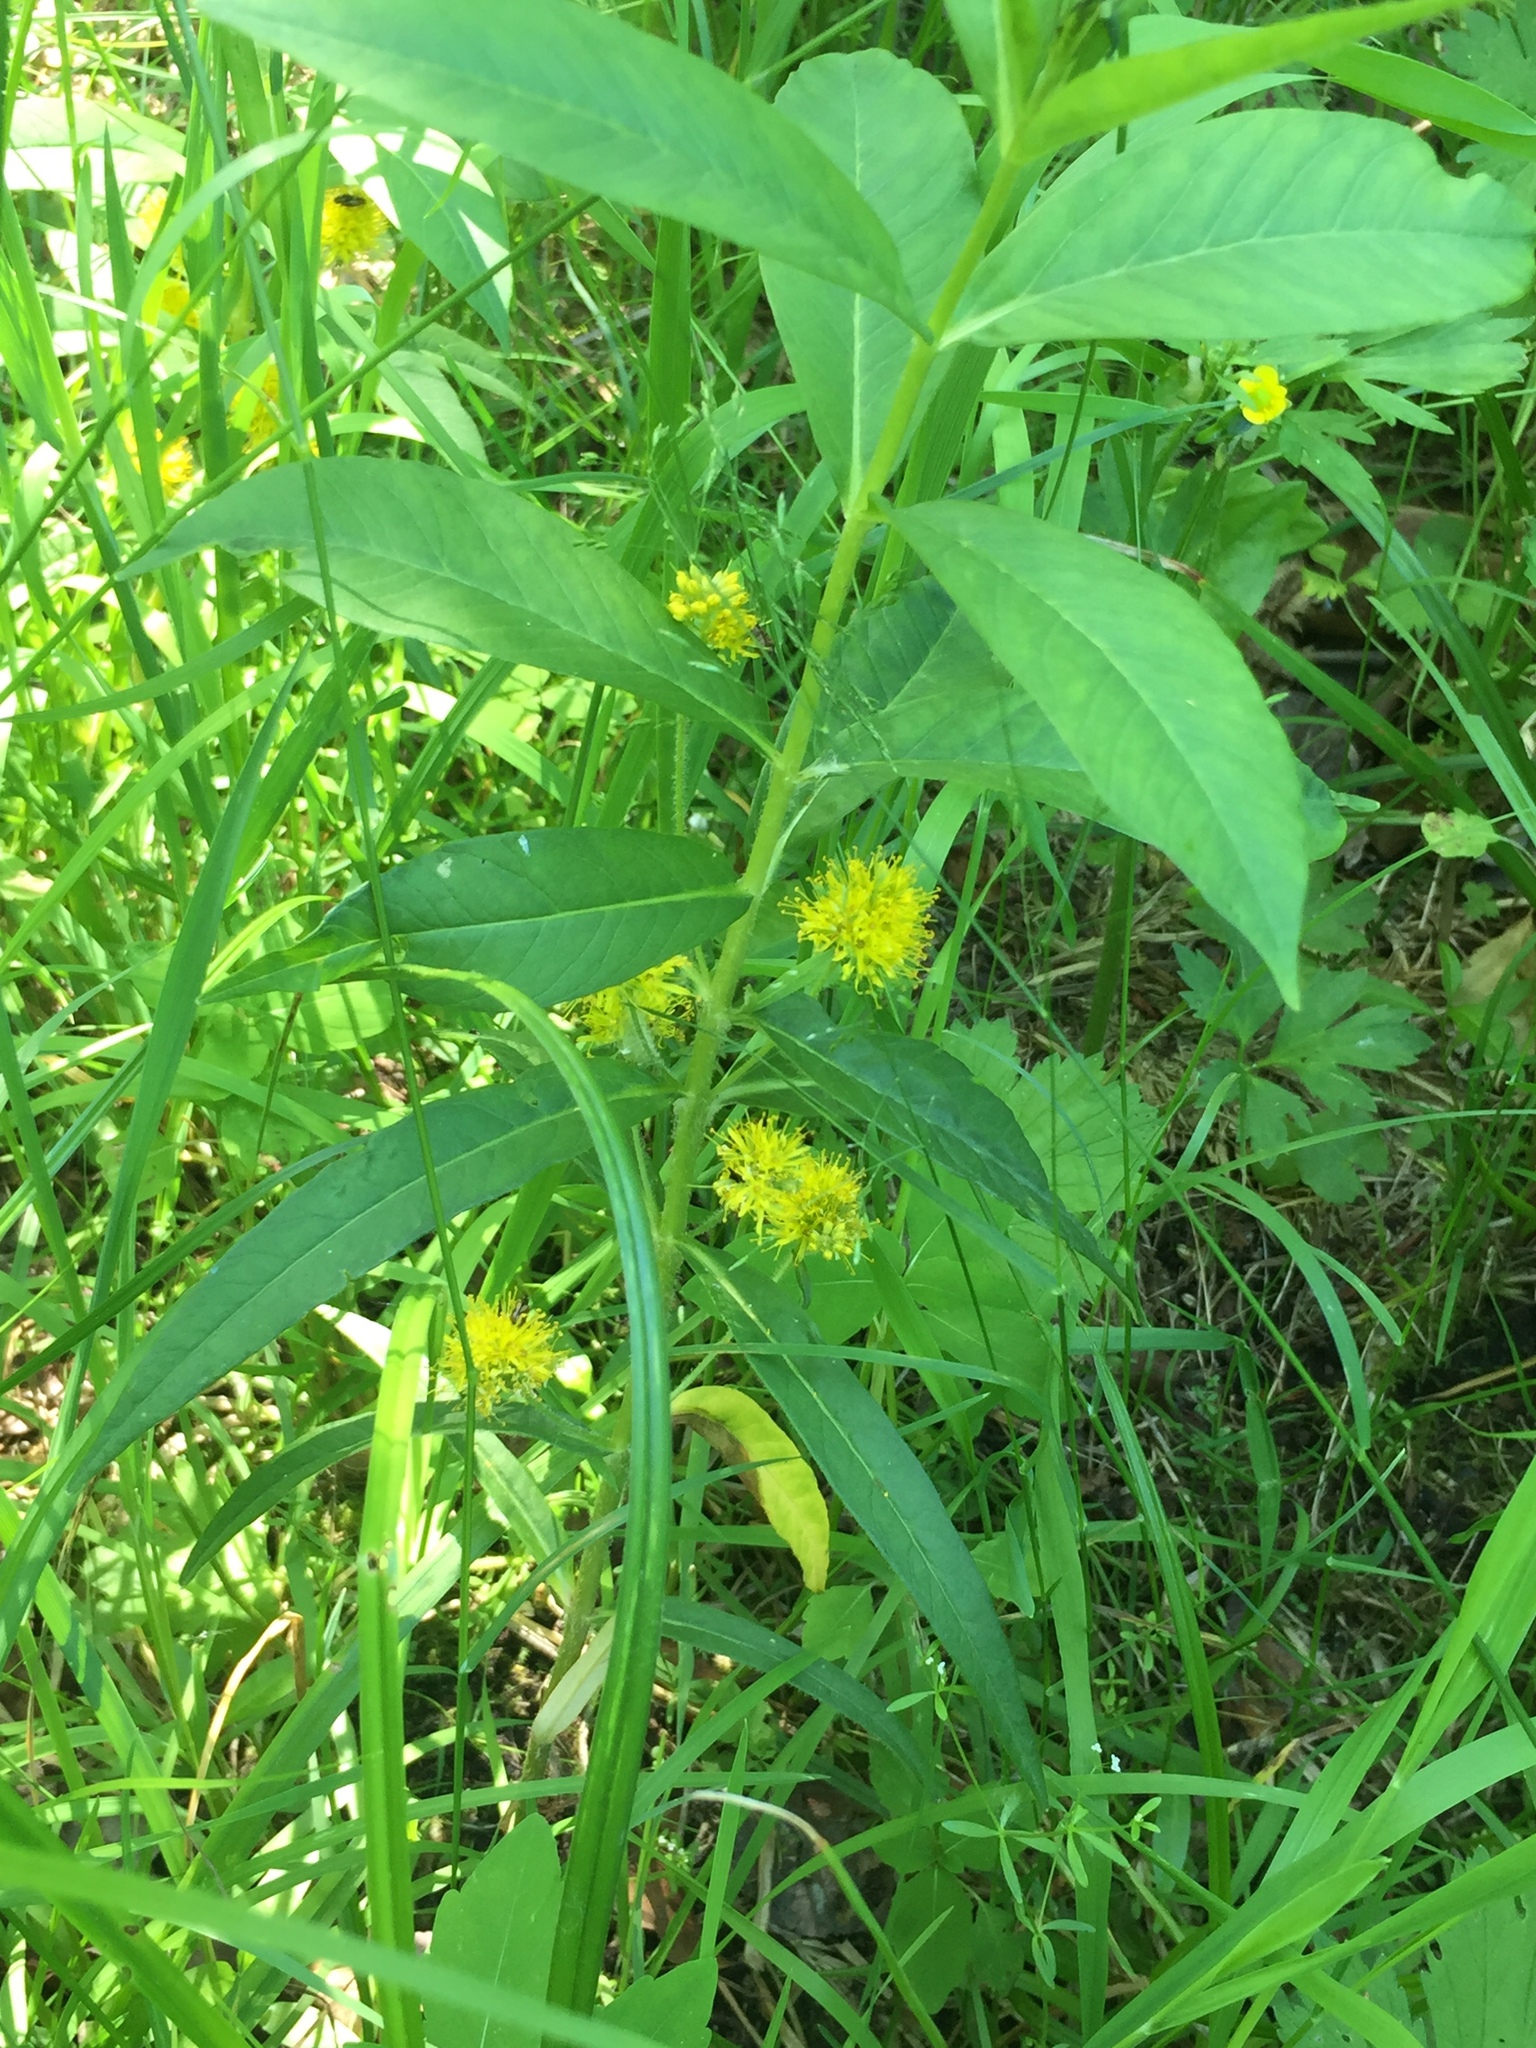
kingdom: Plantae
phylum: Tracheophyta
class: Magnoliopsida
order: Ericales
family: Primulaceae
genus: Lysimachia
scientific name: Lysimachia thyrsiflora
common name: Tufted loosestrife
